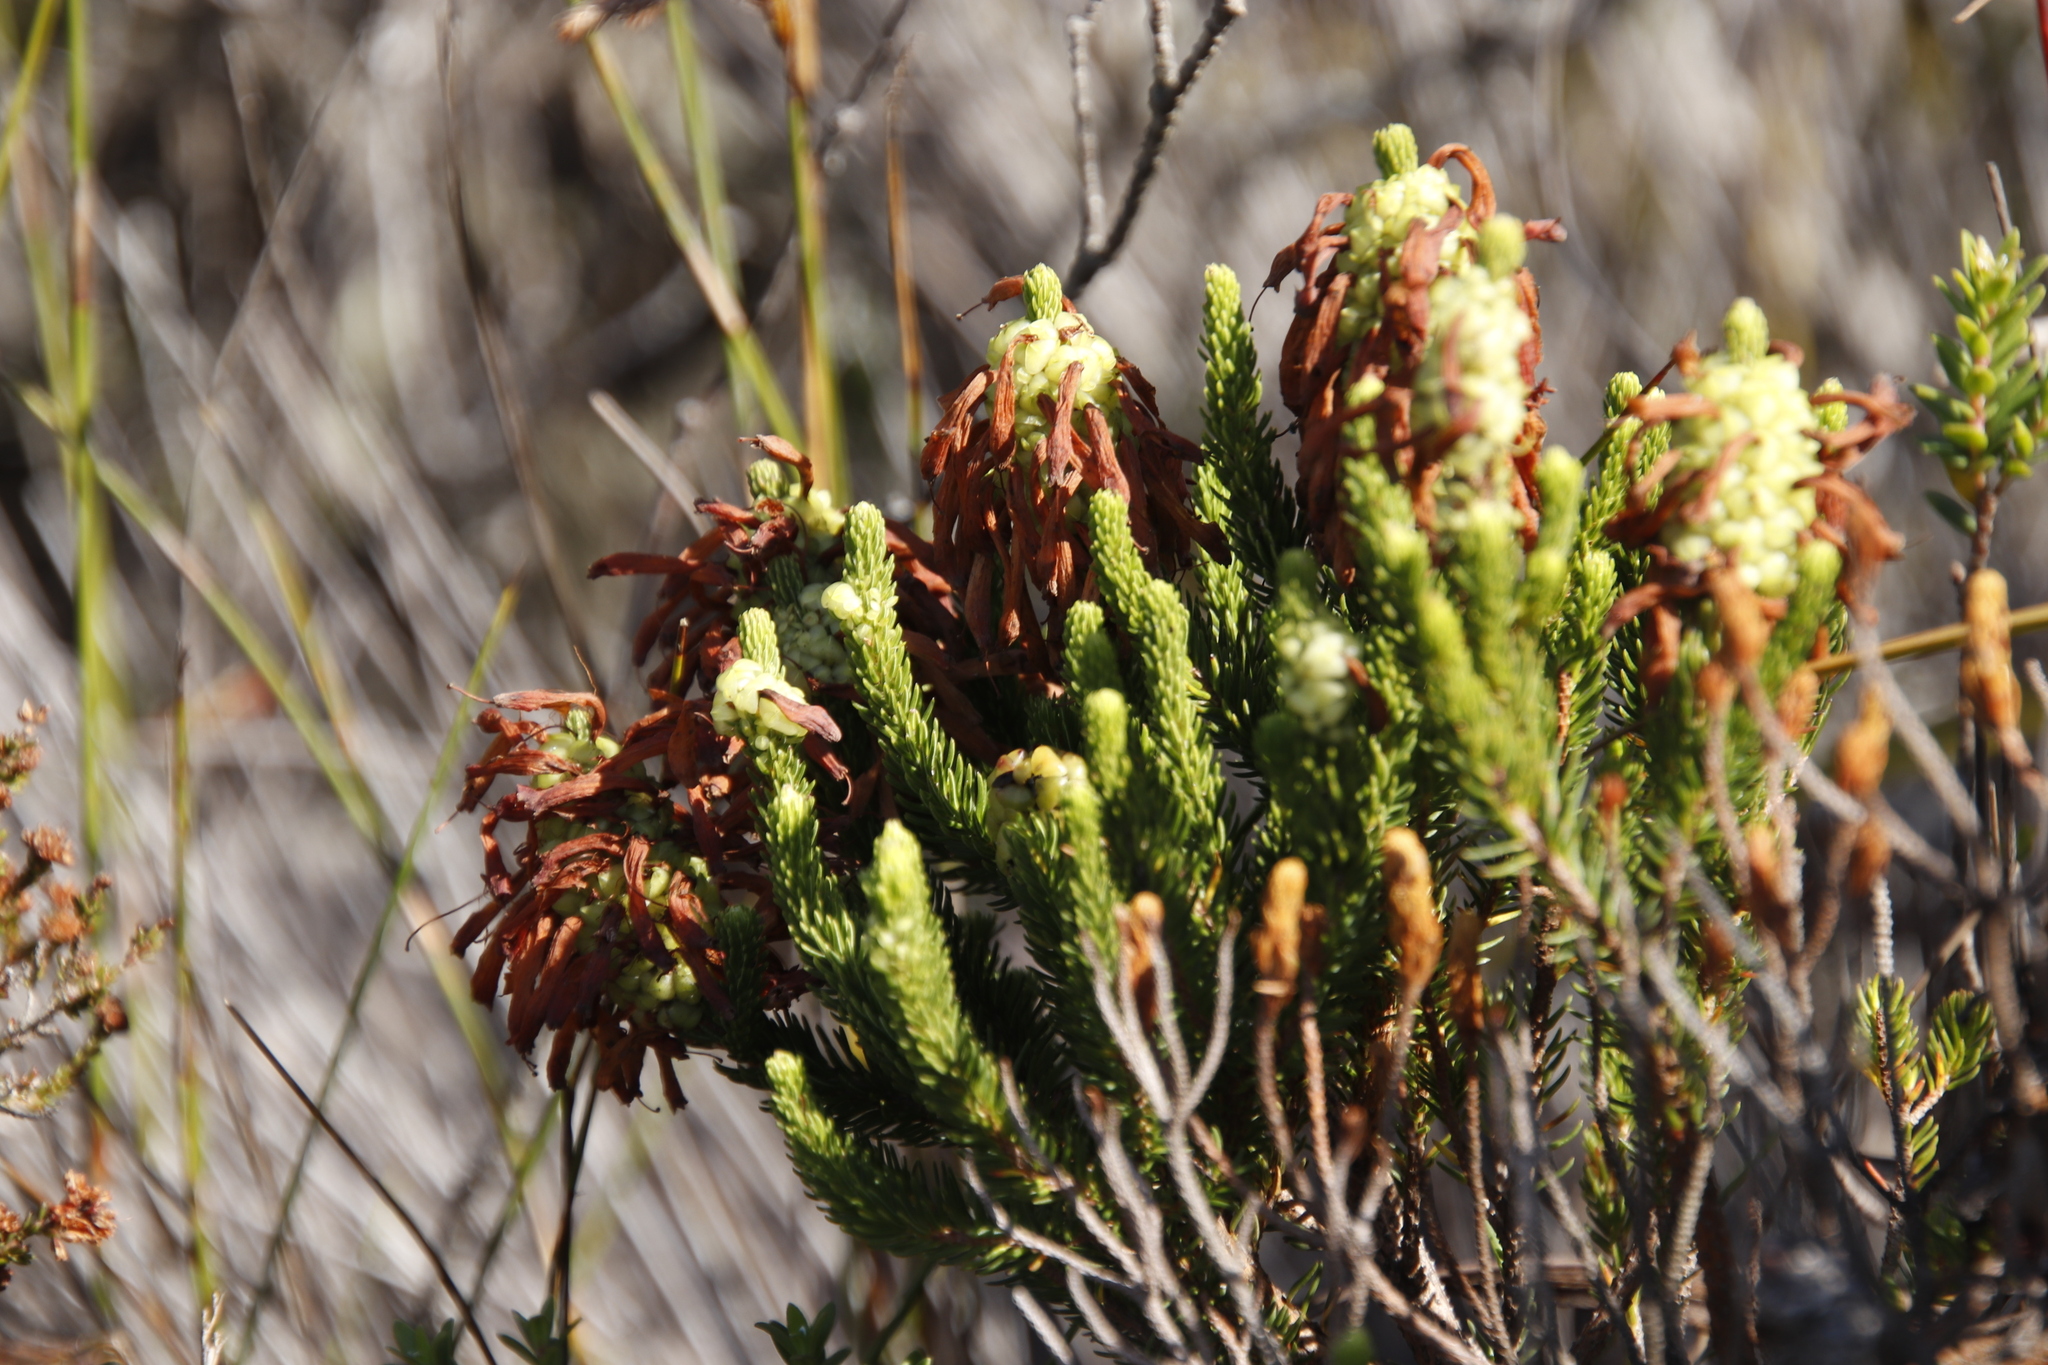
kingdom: Plantae
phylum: Tracheophyta
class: Magnoliopsida
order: Ericales
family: Ericaceae
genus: Erica
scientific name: Erica sessiliflora
